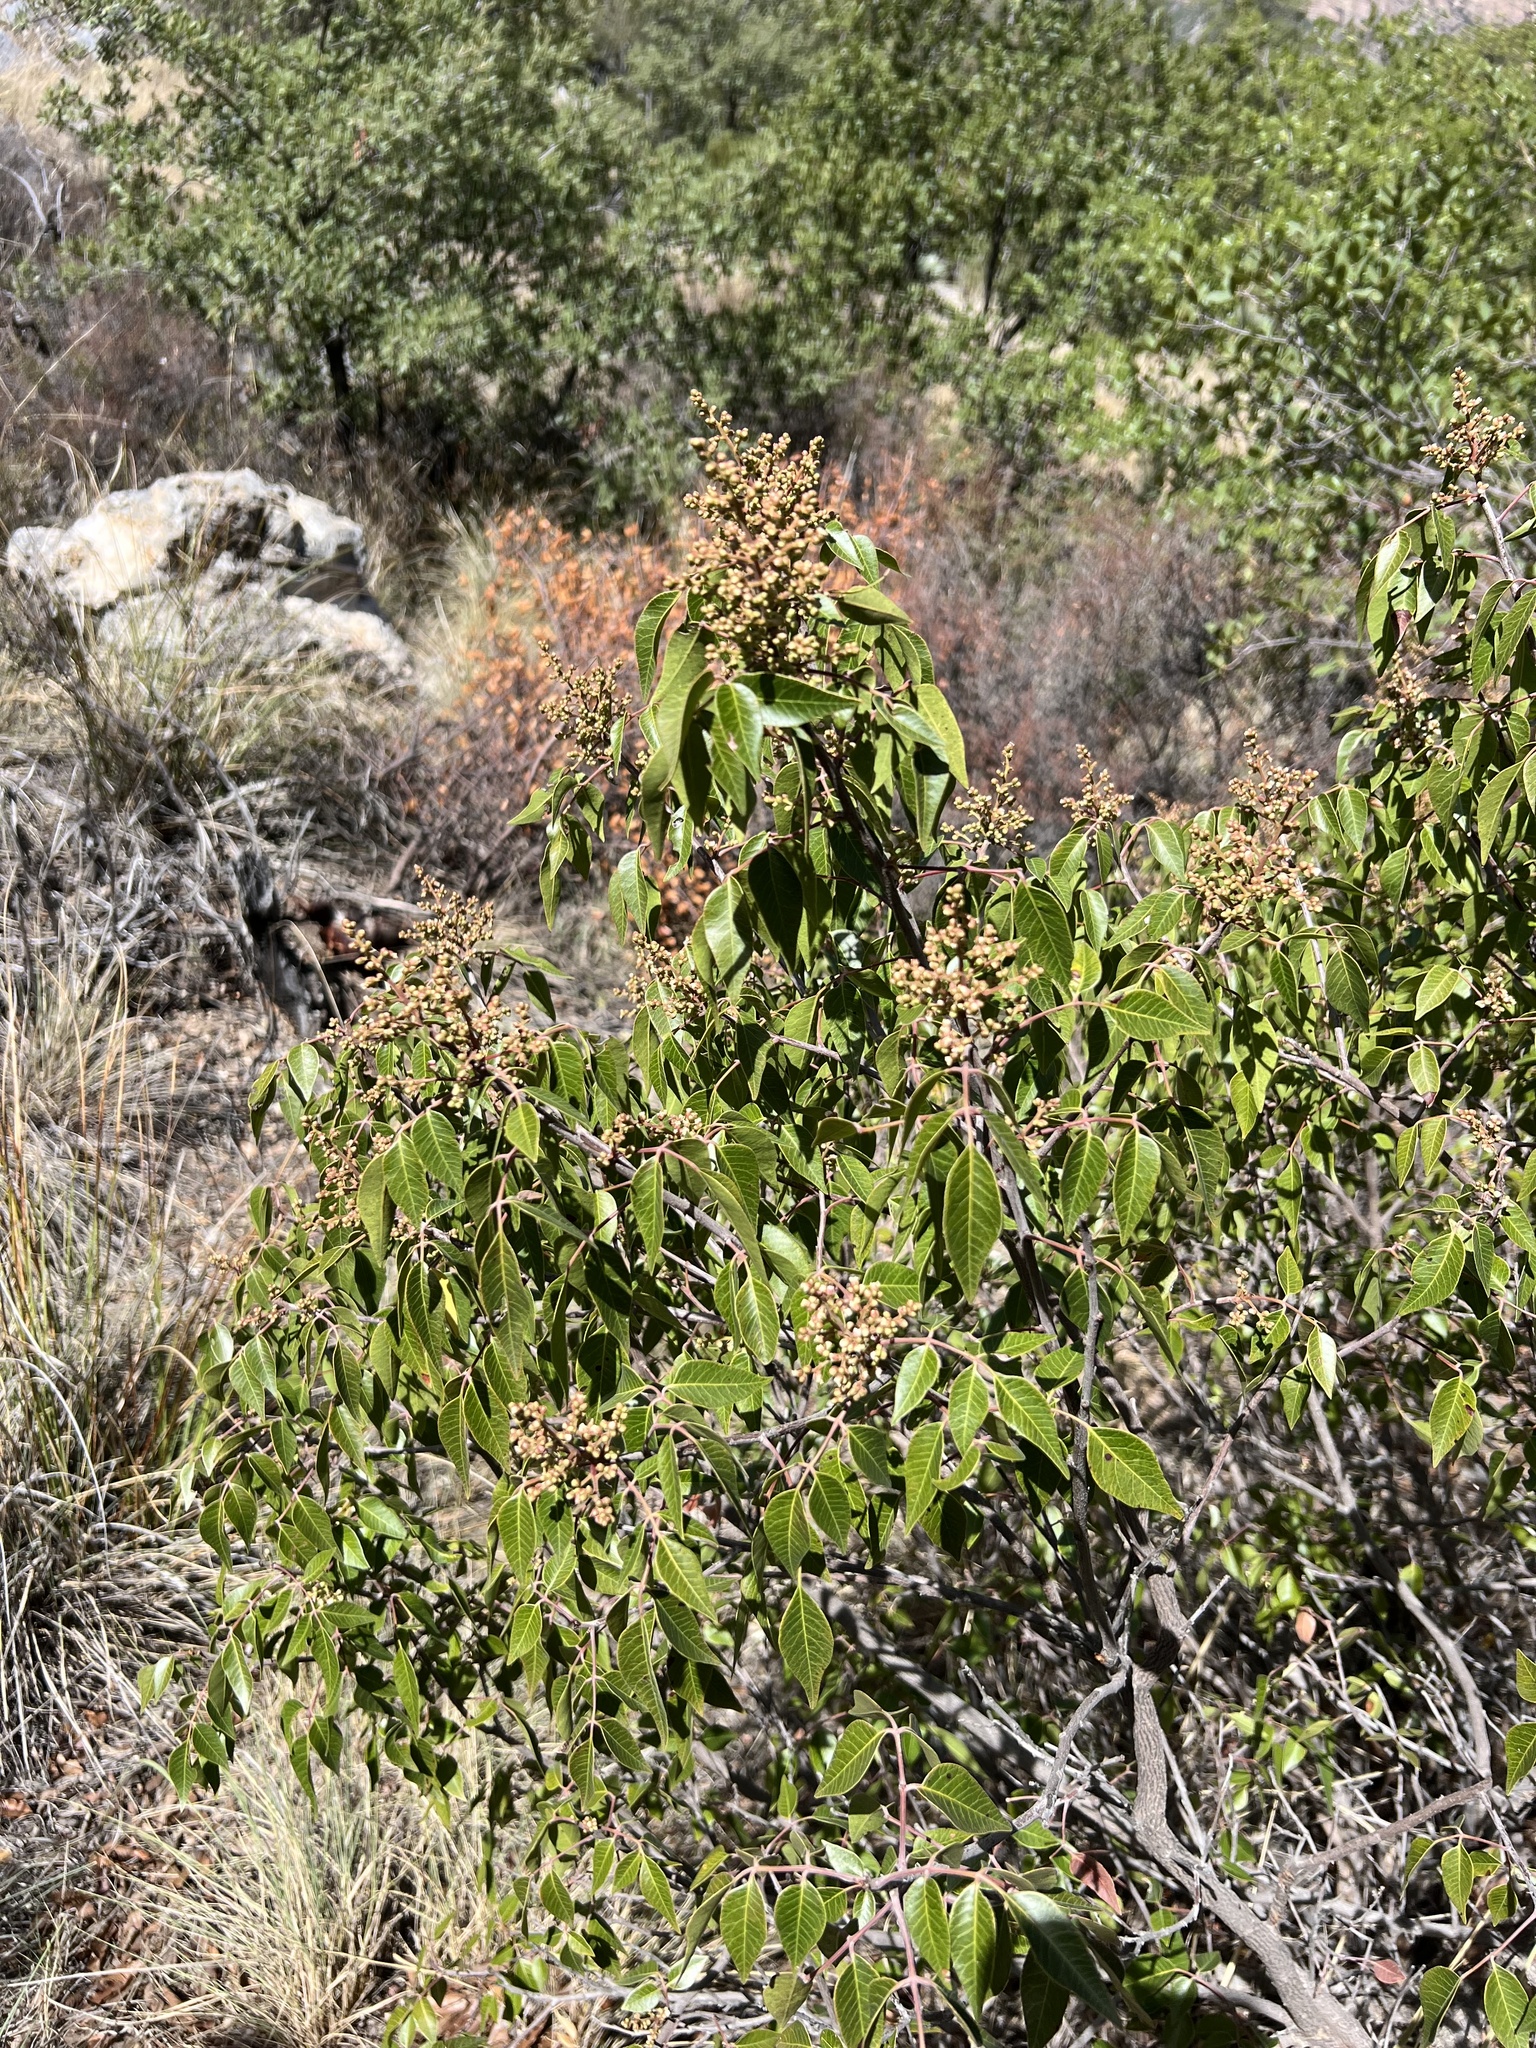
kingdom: Plantae
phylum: Tracheophyta
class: Magnoliopsida
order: Sapindales
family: Anacardiaceae
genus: Rhus
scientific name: Rhus virens
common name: Evergreen sumac
